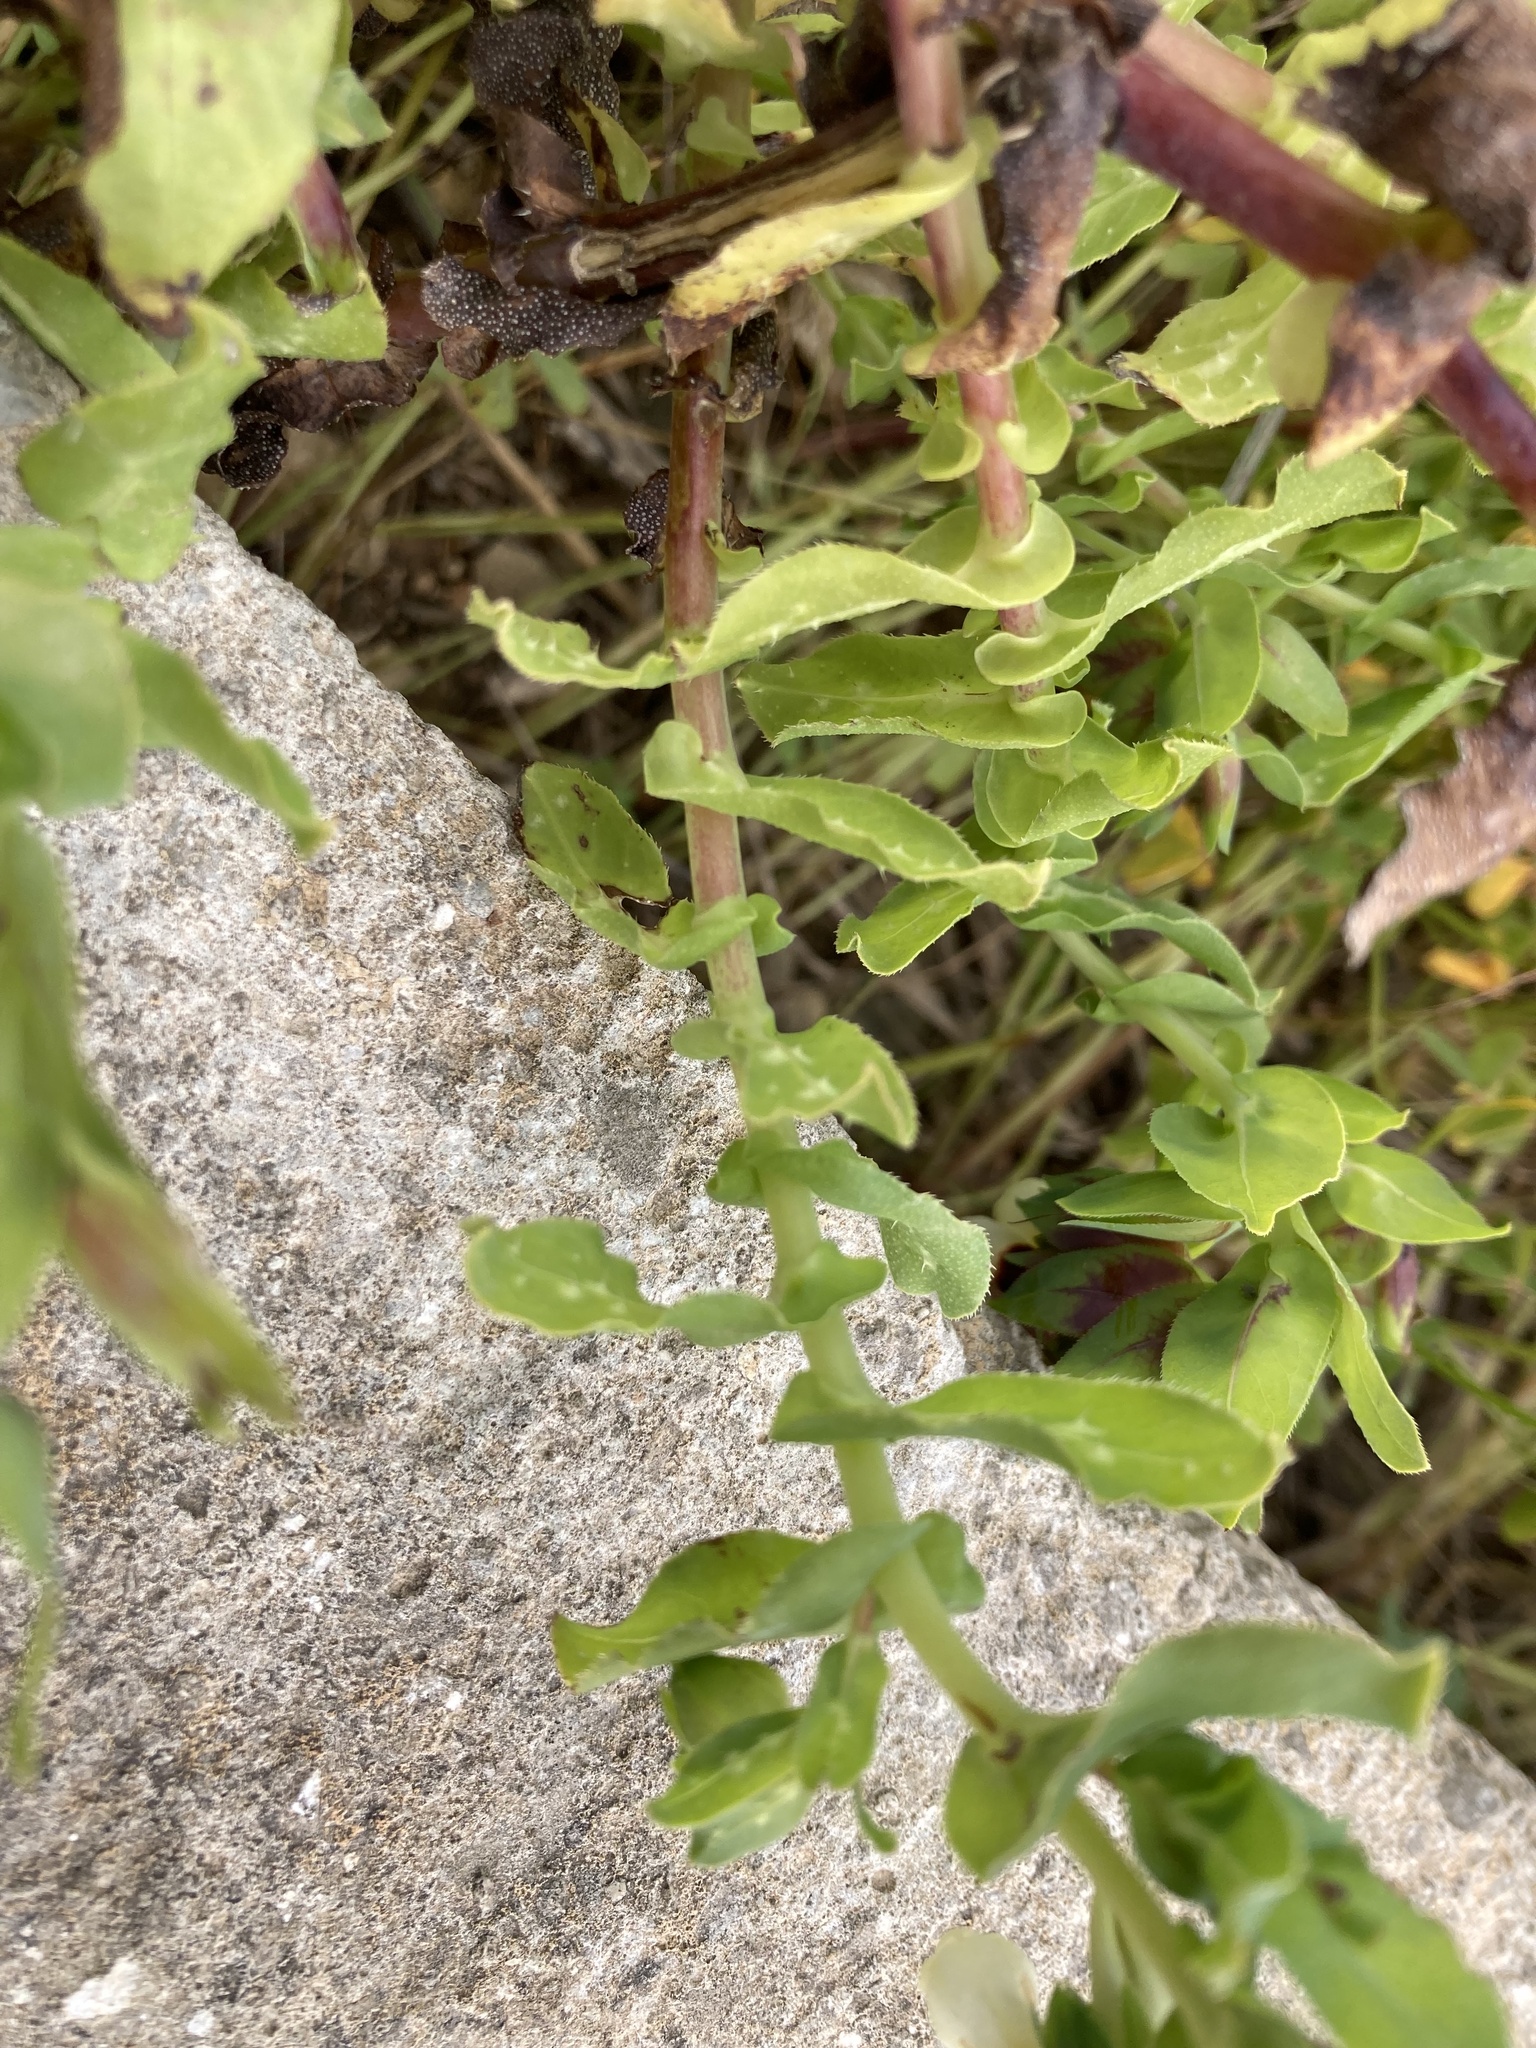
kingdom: Plantae
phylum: Tracheophyta
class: Magnoliopsida
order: Boraginales
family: Boraginaceae
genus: Cerinthe
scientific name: Cerinthe major
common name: Greater honeywort
